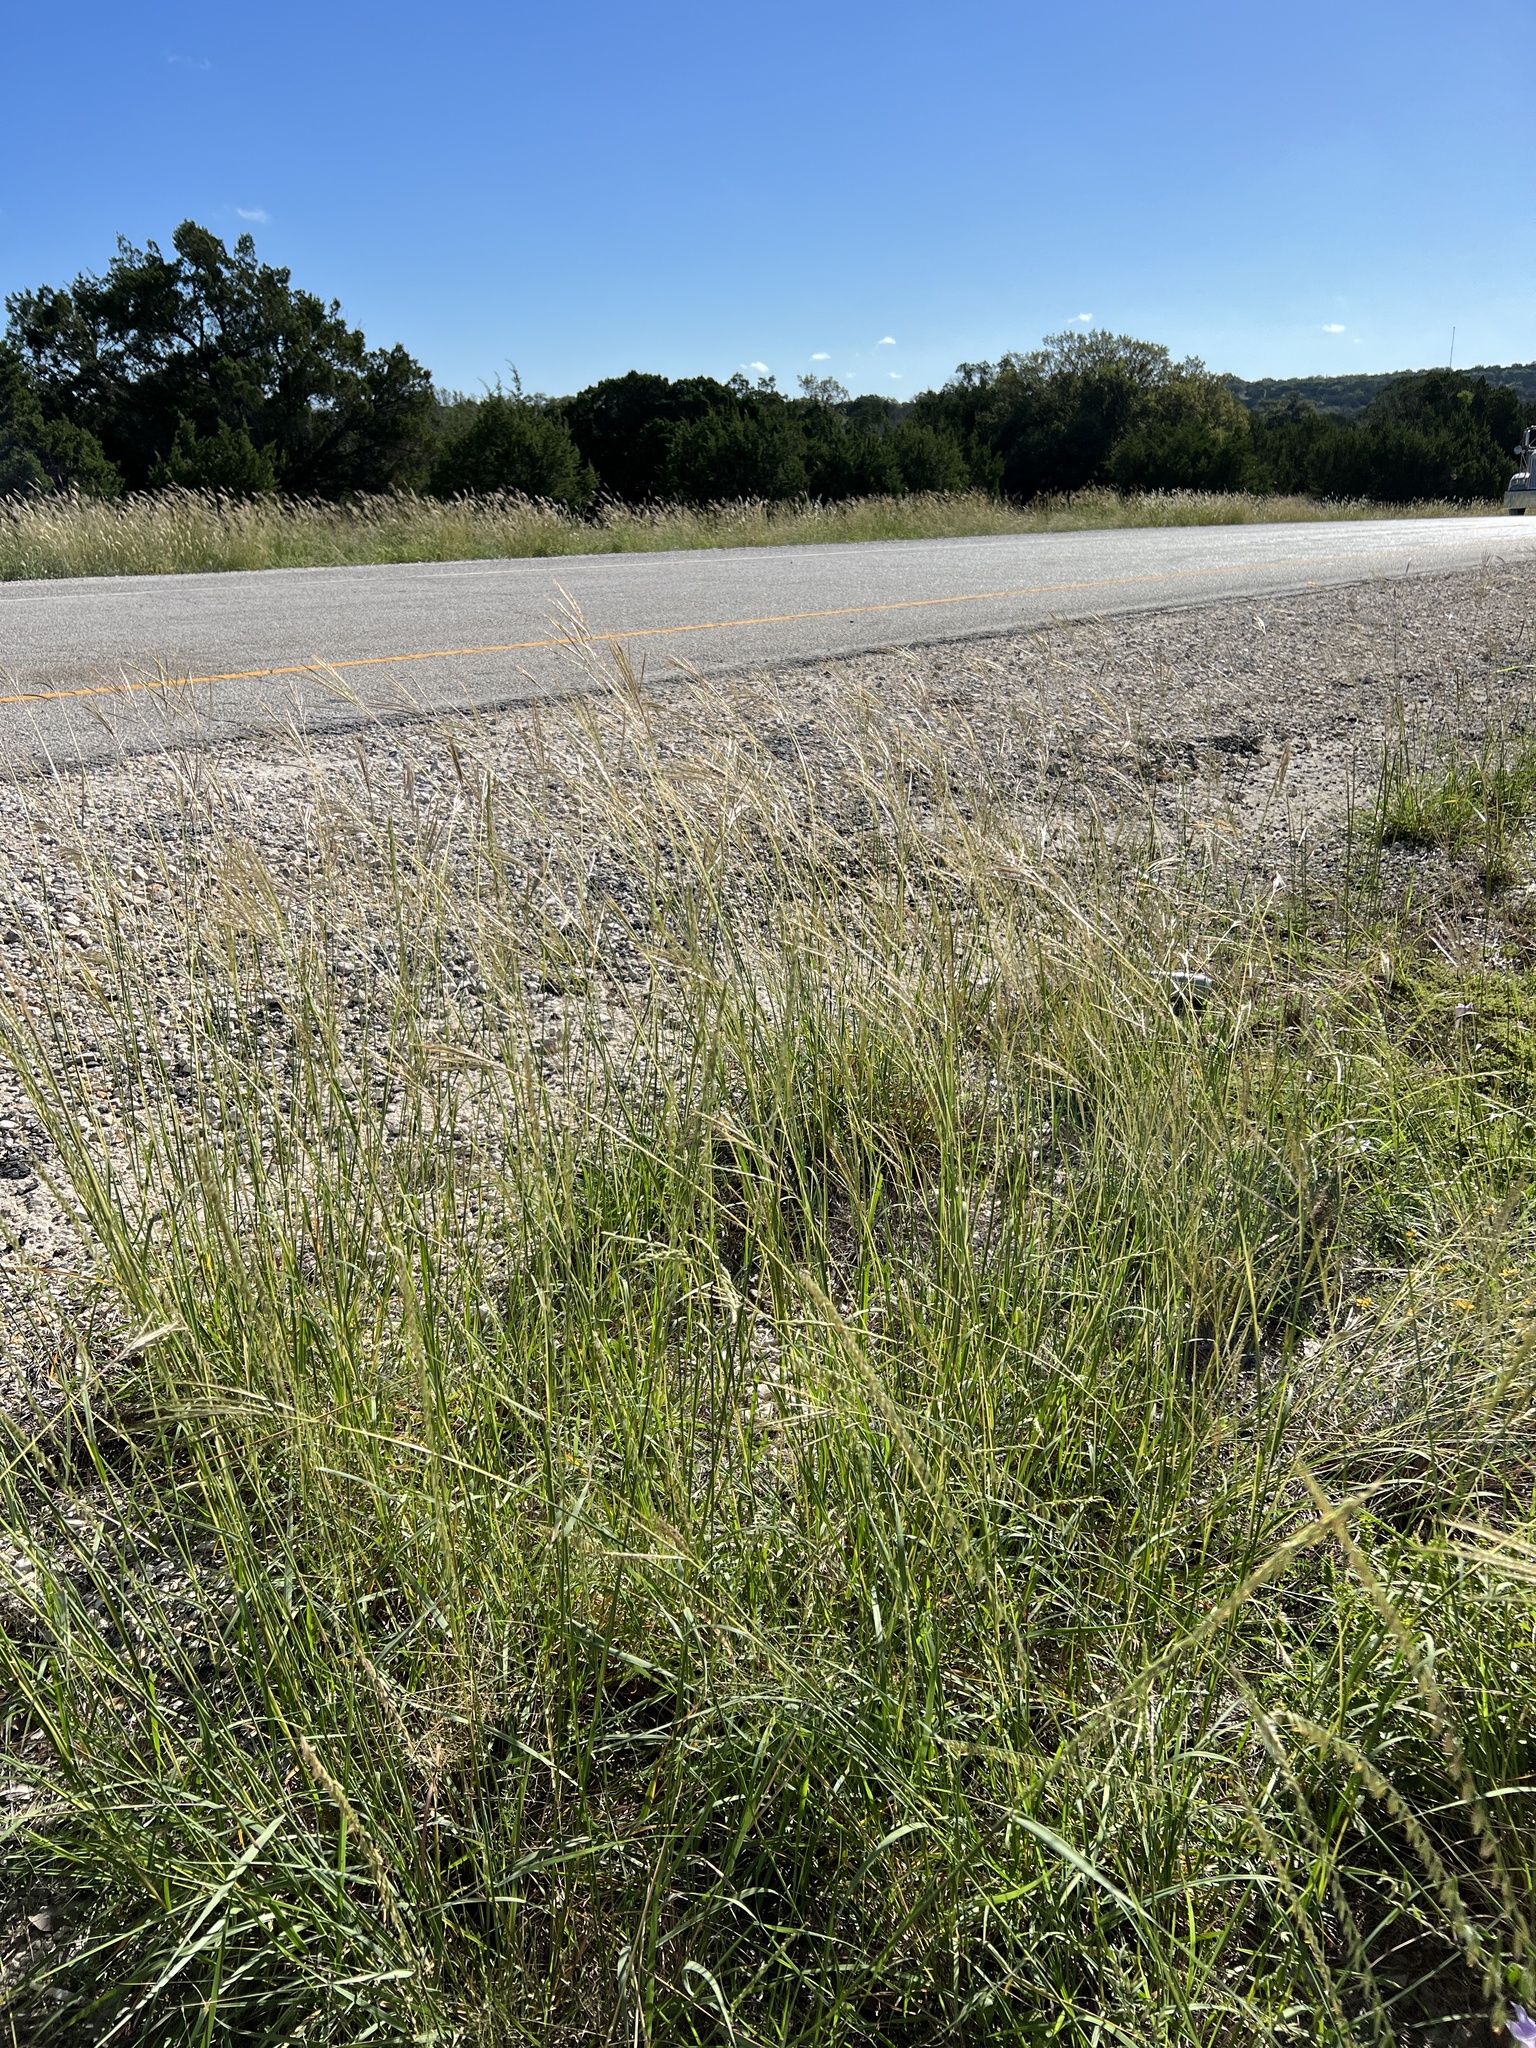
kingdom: Plantae
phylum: Tracheophyta
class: Liliopsida
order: Poales
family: Poaceae
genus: Bothriochloa
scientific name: Bothriochloa ischaemum
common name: Yellow bluestem
